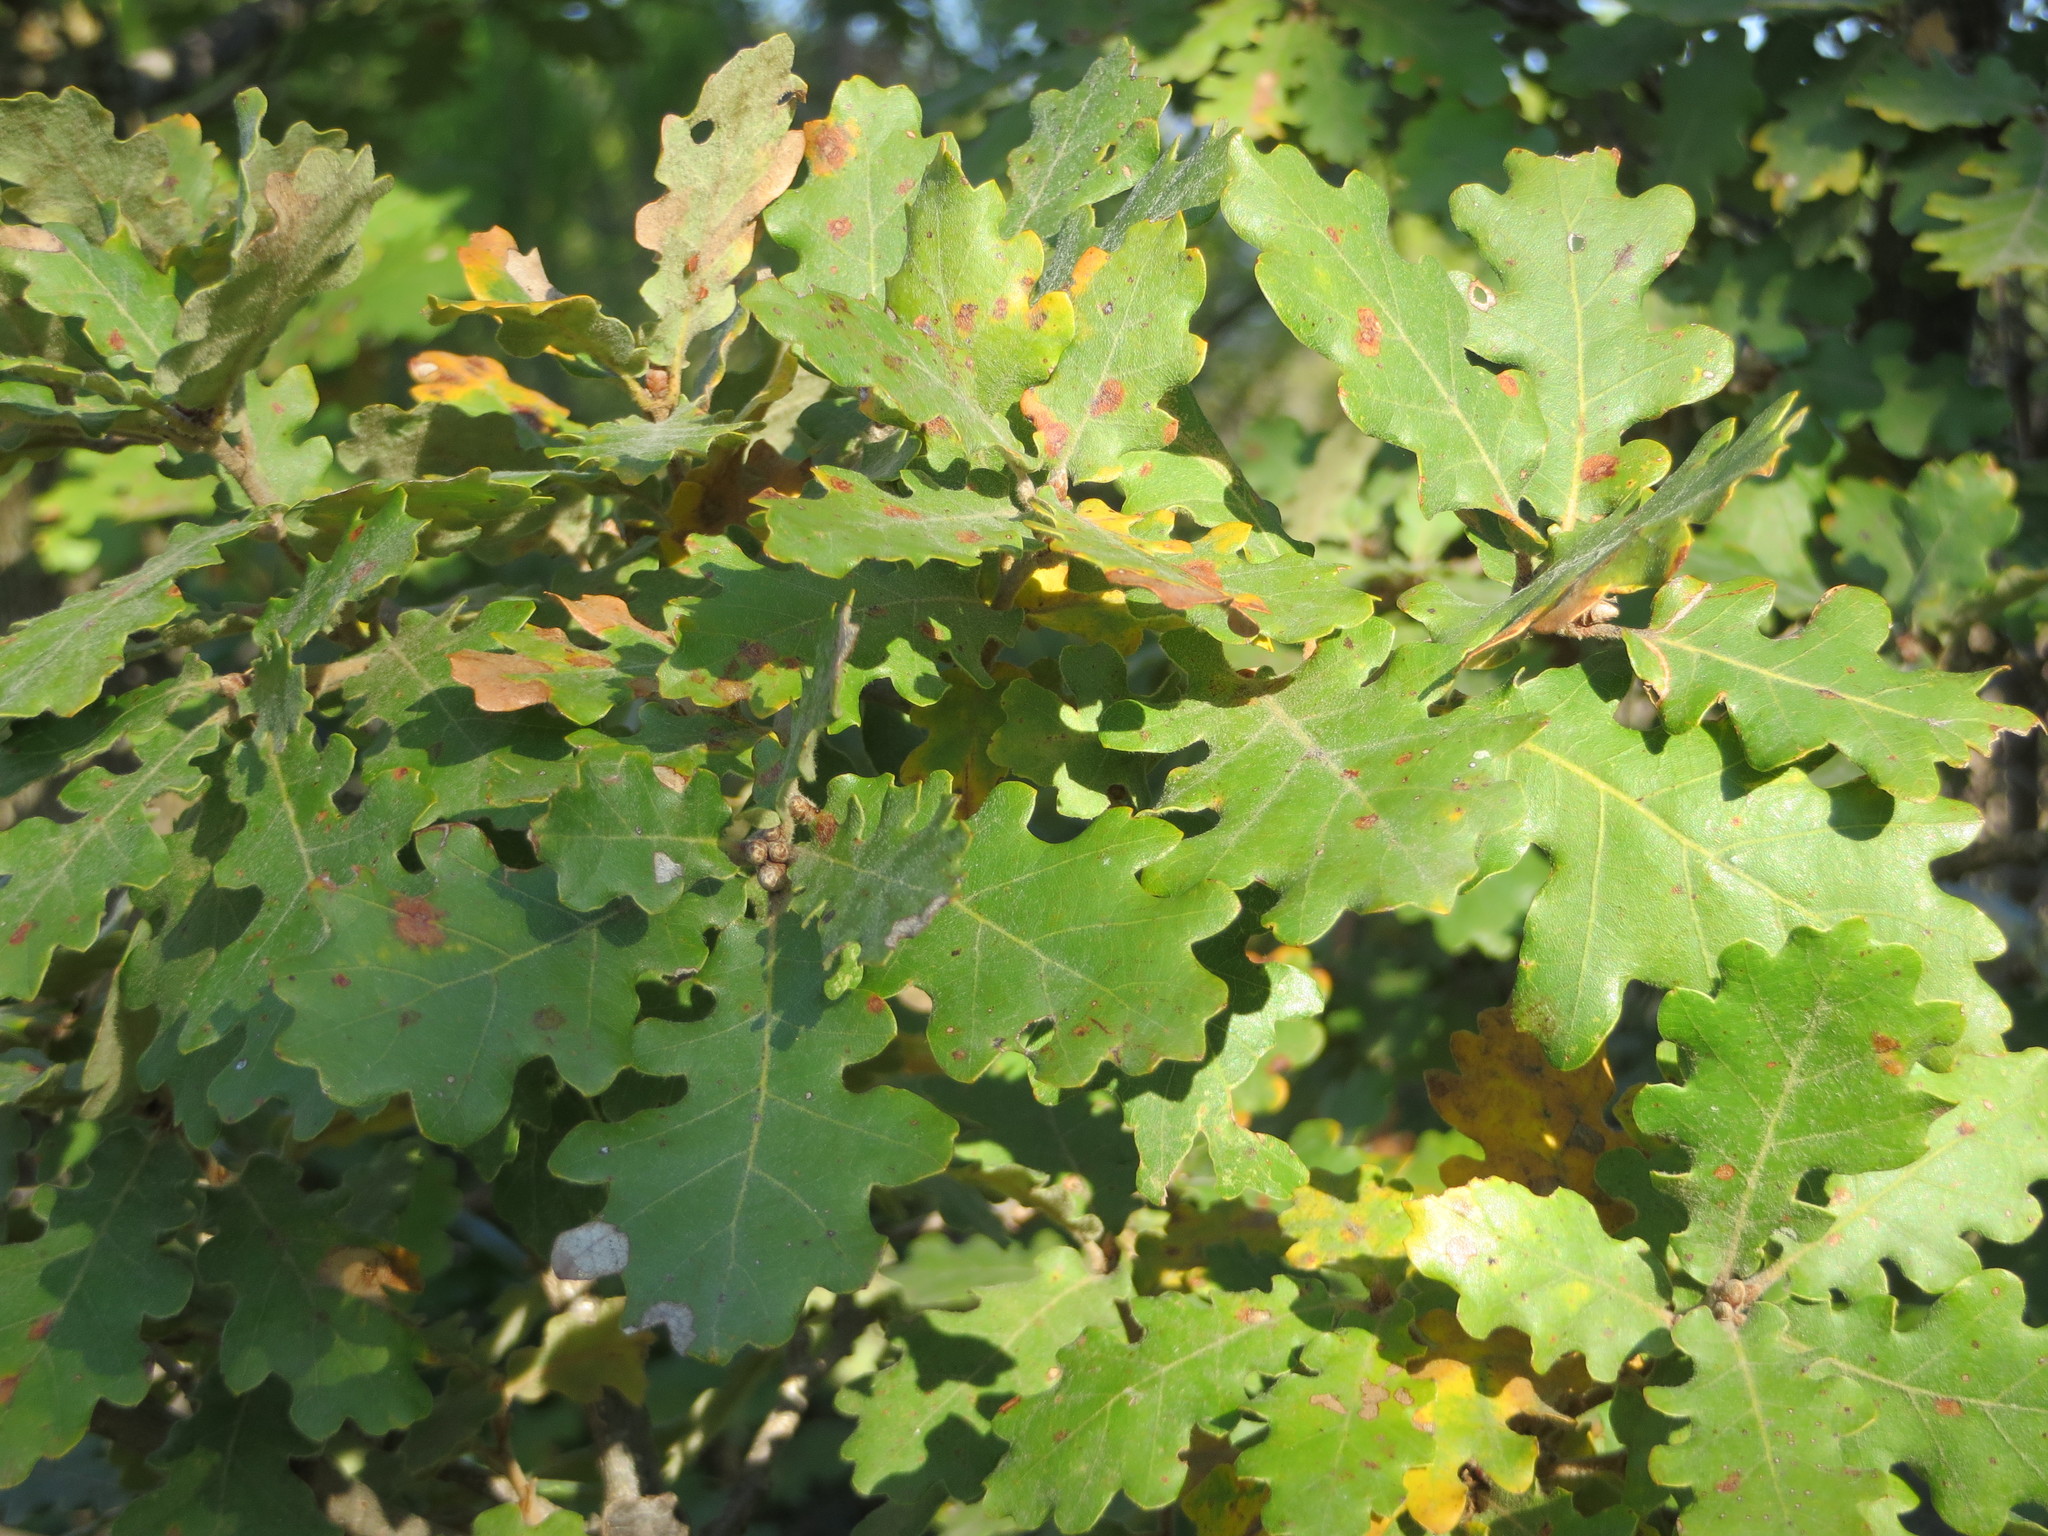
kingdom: Plantae
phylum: Tracheophyta
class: Magnoliopsida
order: Fagales
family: Fagaceae
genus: Quercus
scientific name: Quercus pubescens
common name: Downy oak
